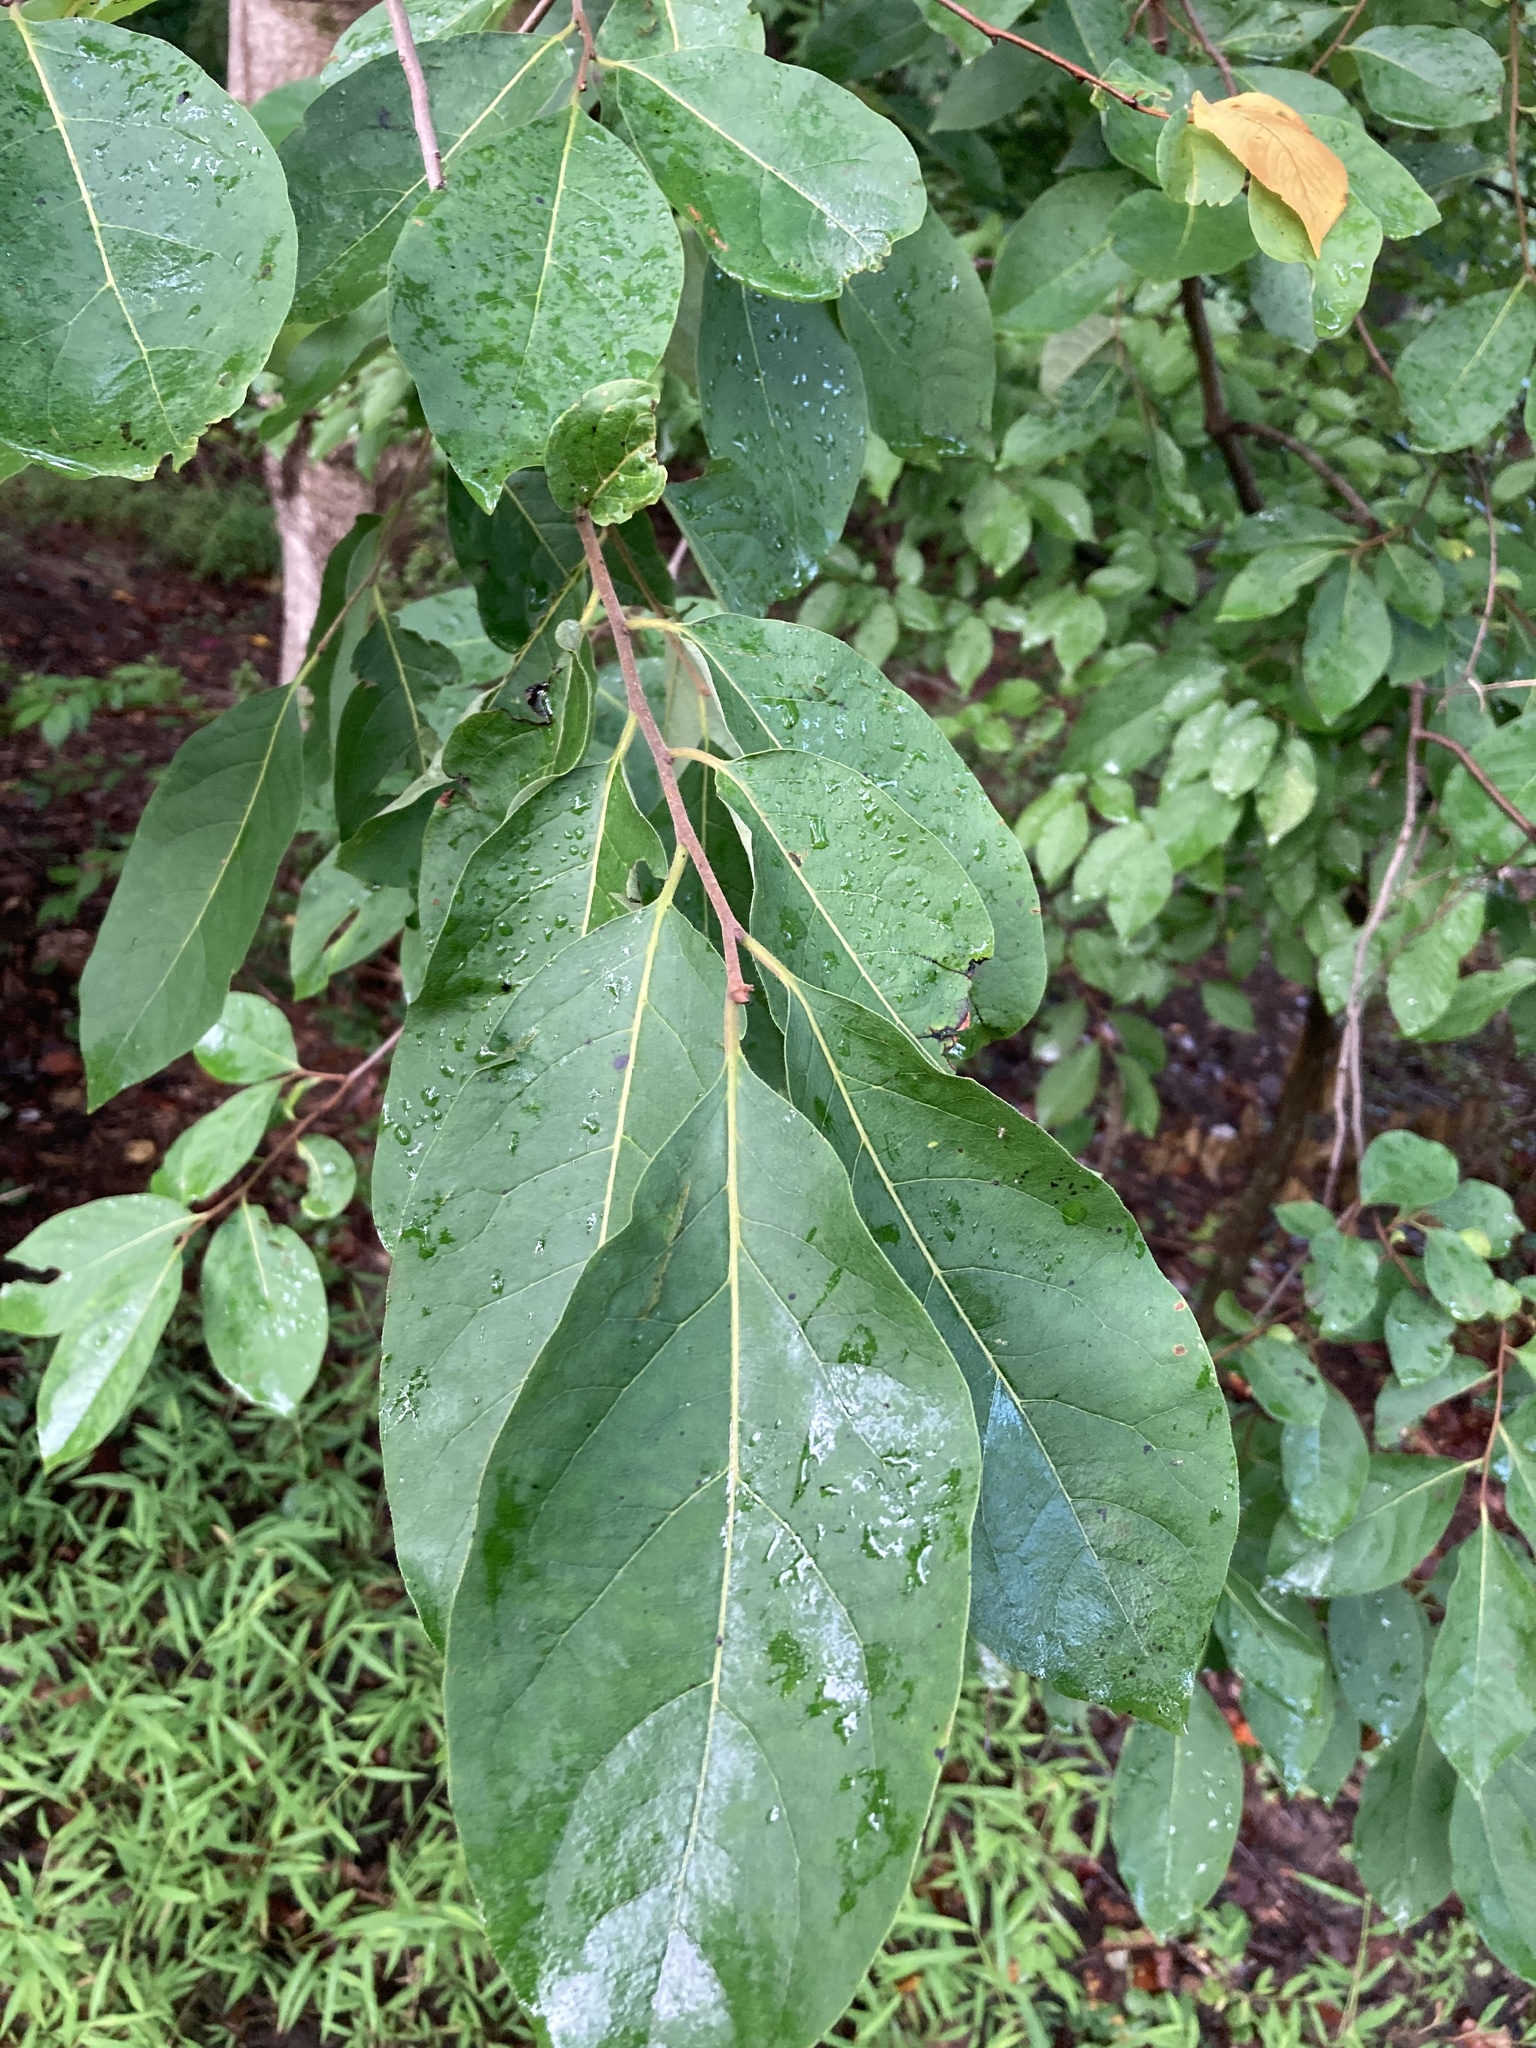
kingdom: Plantae
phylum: Tracheophyta
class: Magnoliopsida
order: Ericales
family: Ebenaceae
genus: Diospyros
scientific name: Diospyros virginiana
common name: Persimmon
